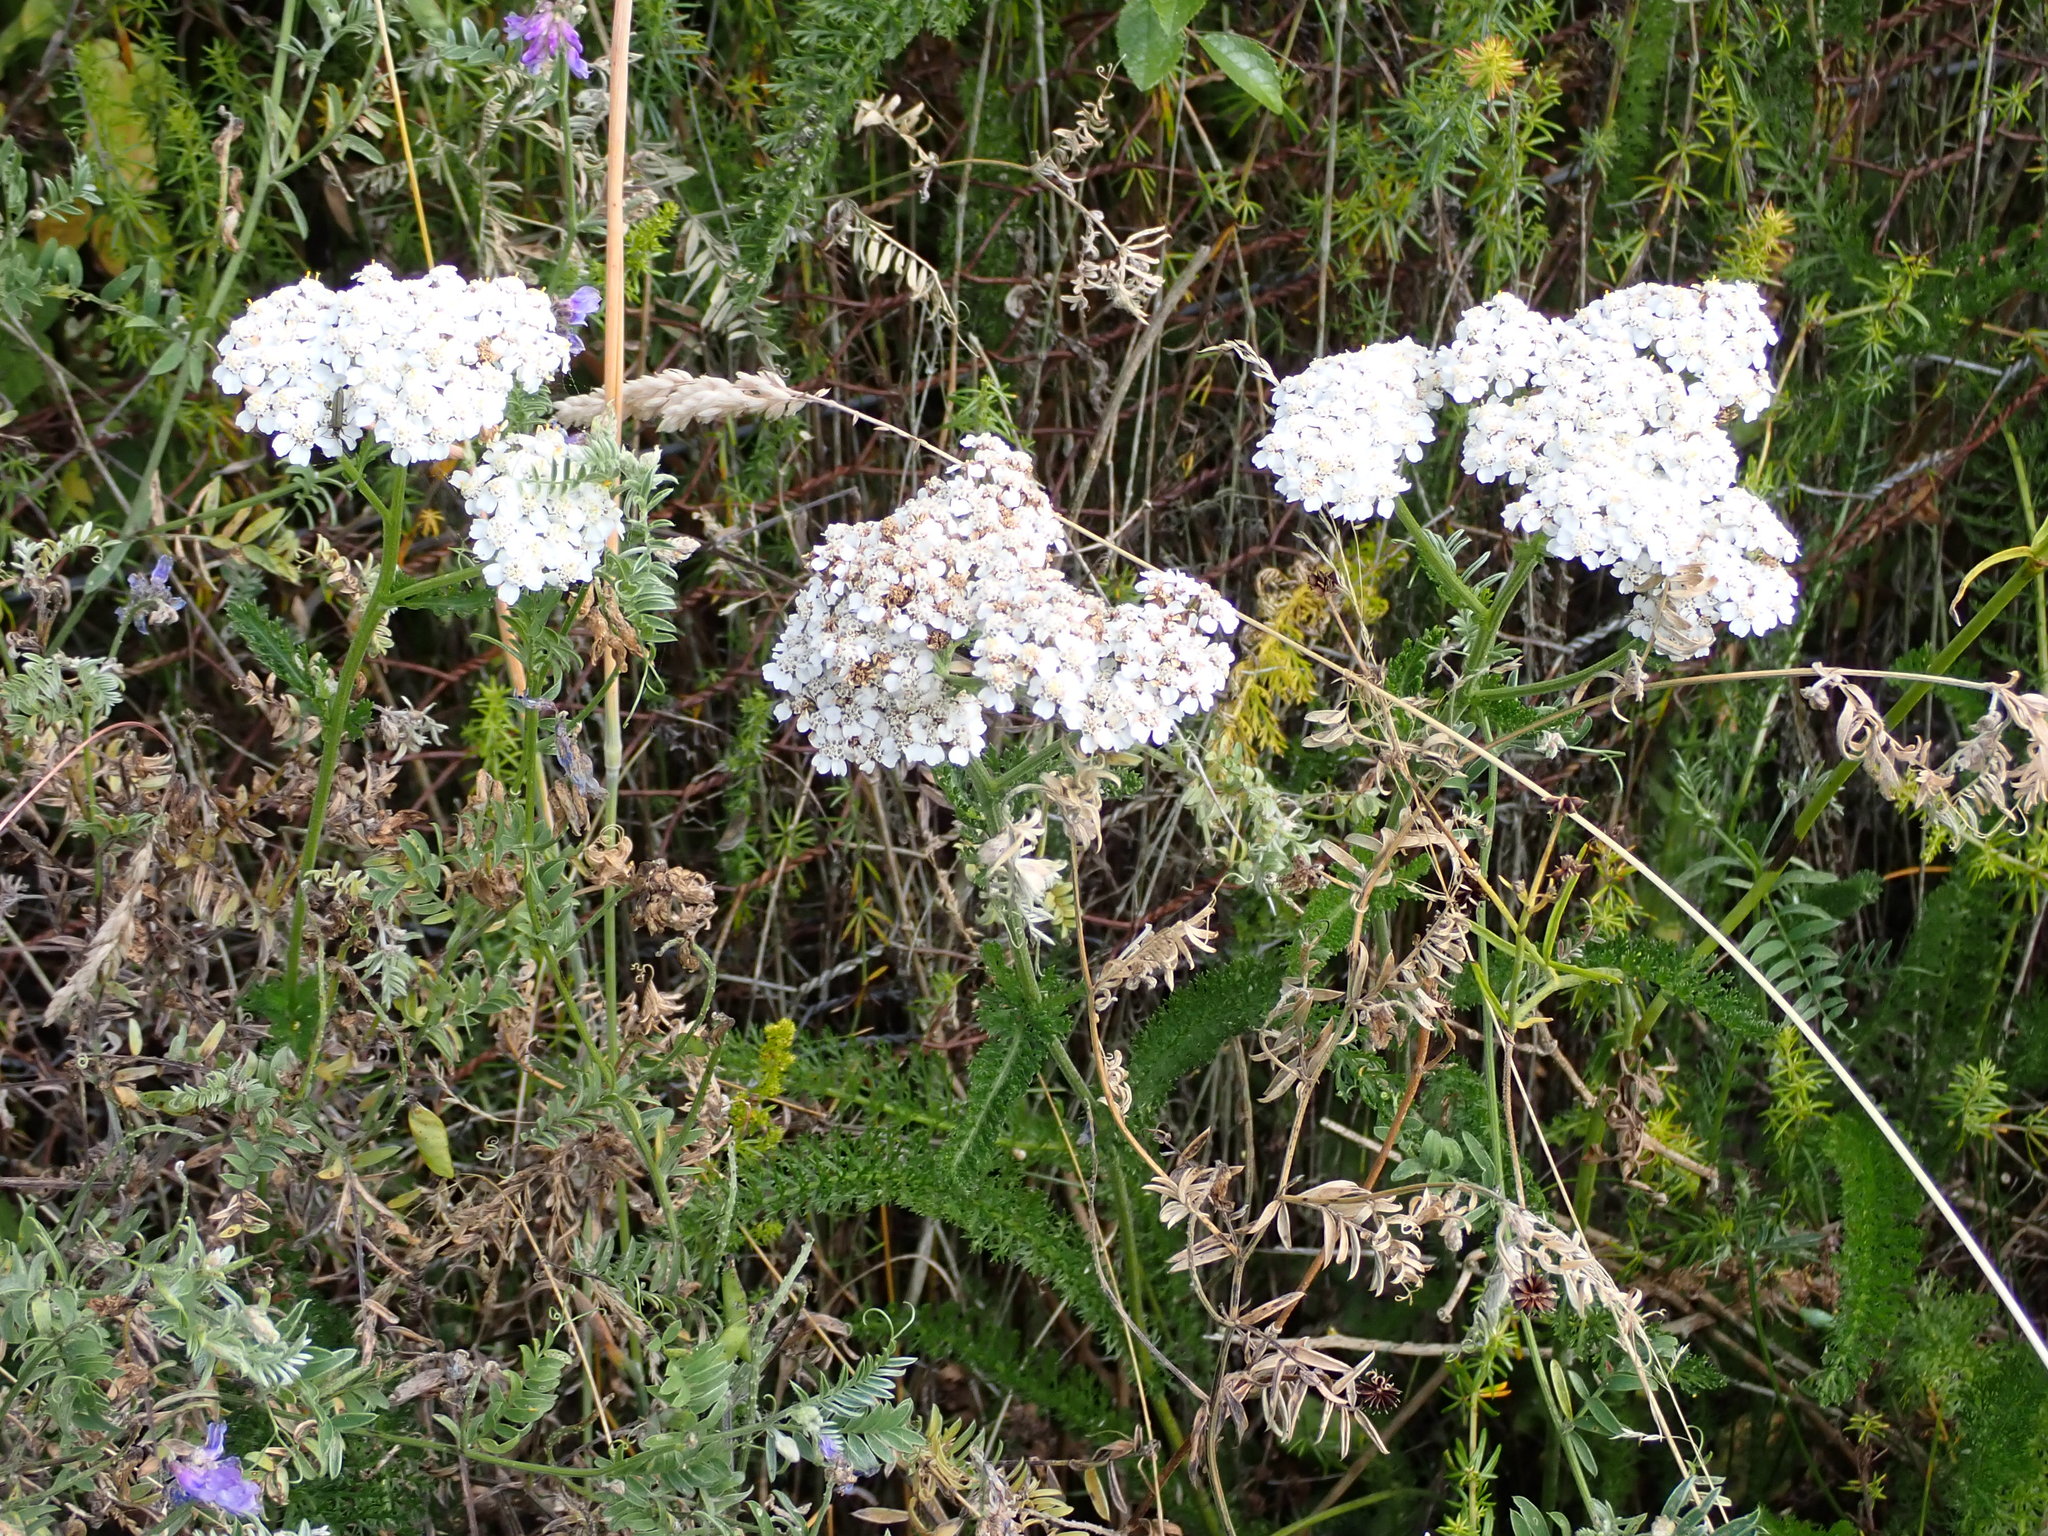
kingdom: Plantae
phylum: Tracheophyta
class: Magnoliopsida
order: Asterales
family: Asteraceae
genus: Achillea
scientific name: Achillea millefolium
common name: Yarrow
